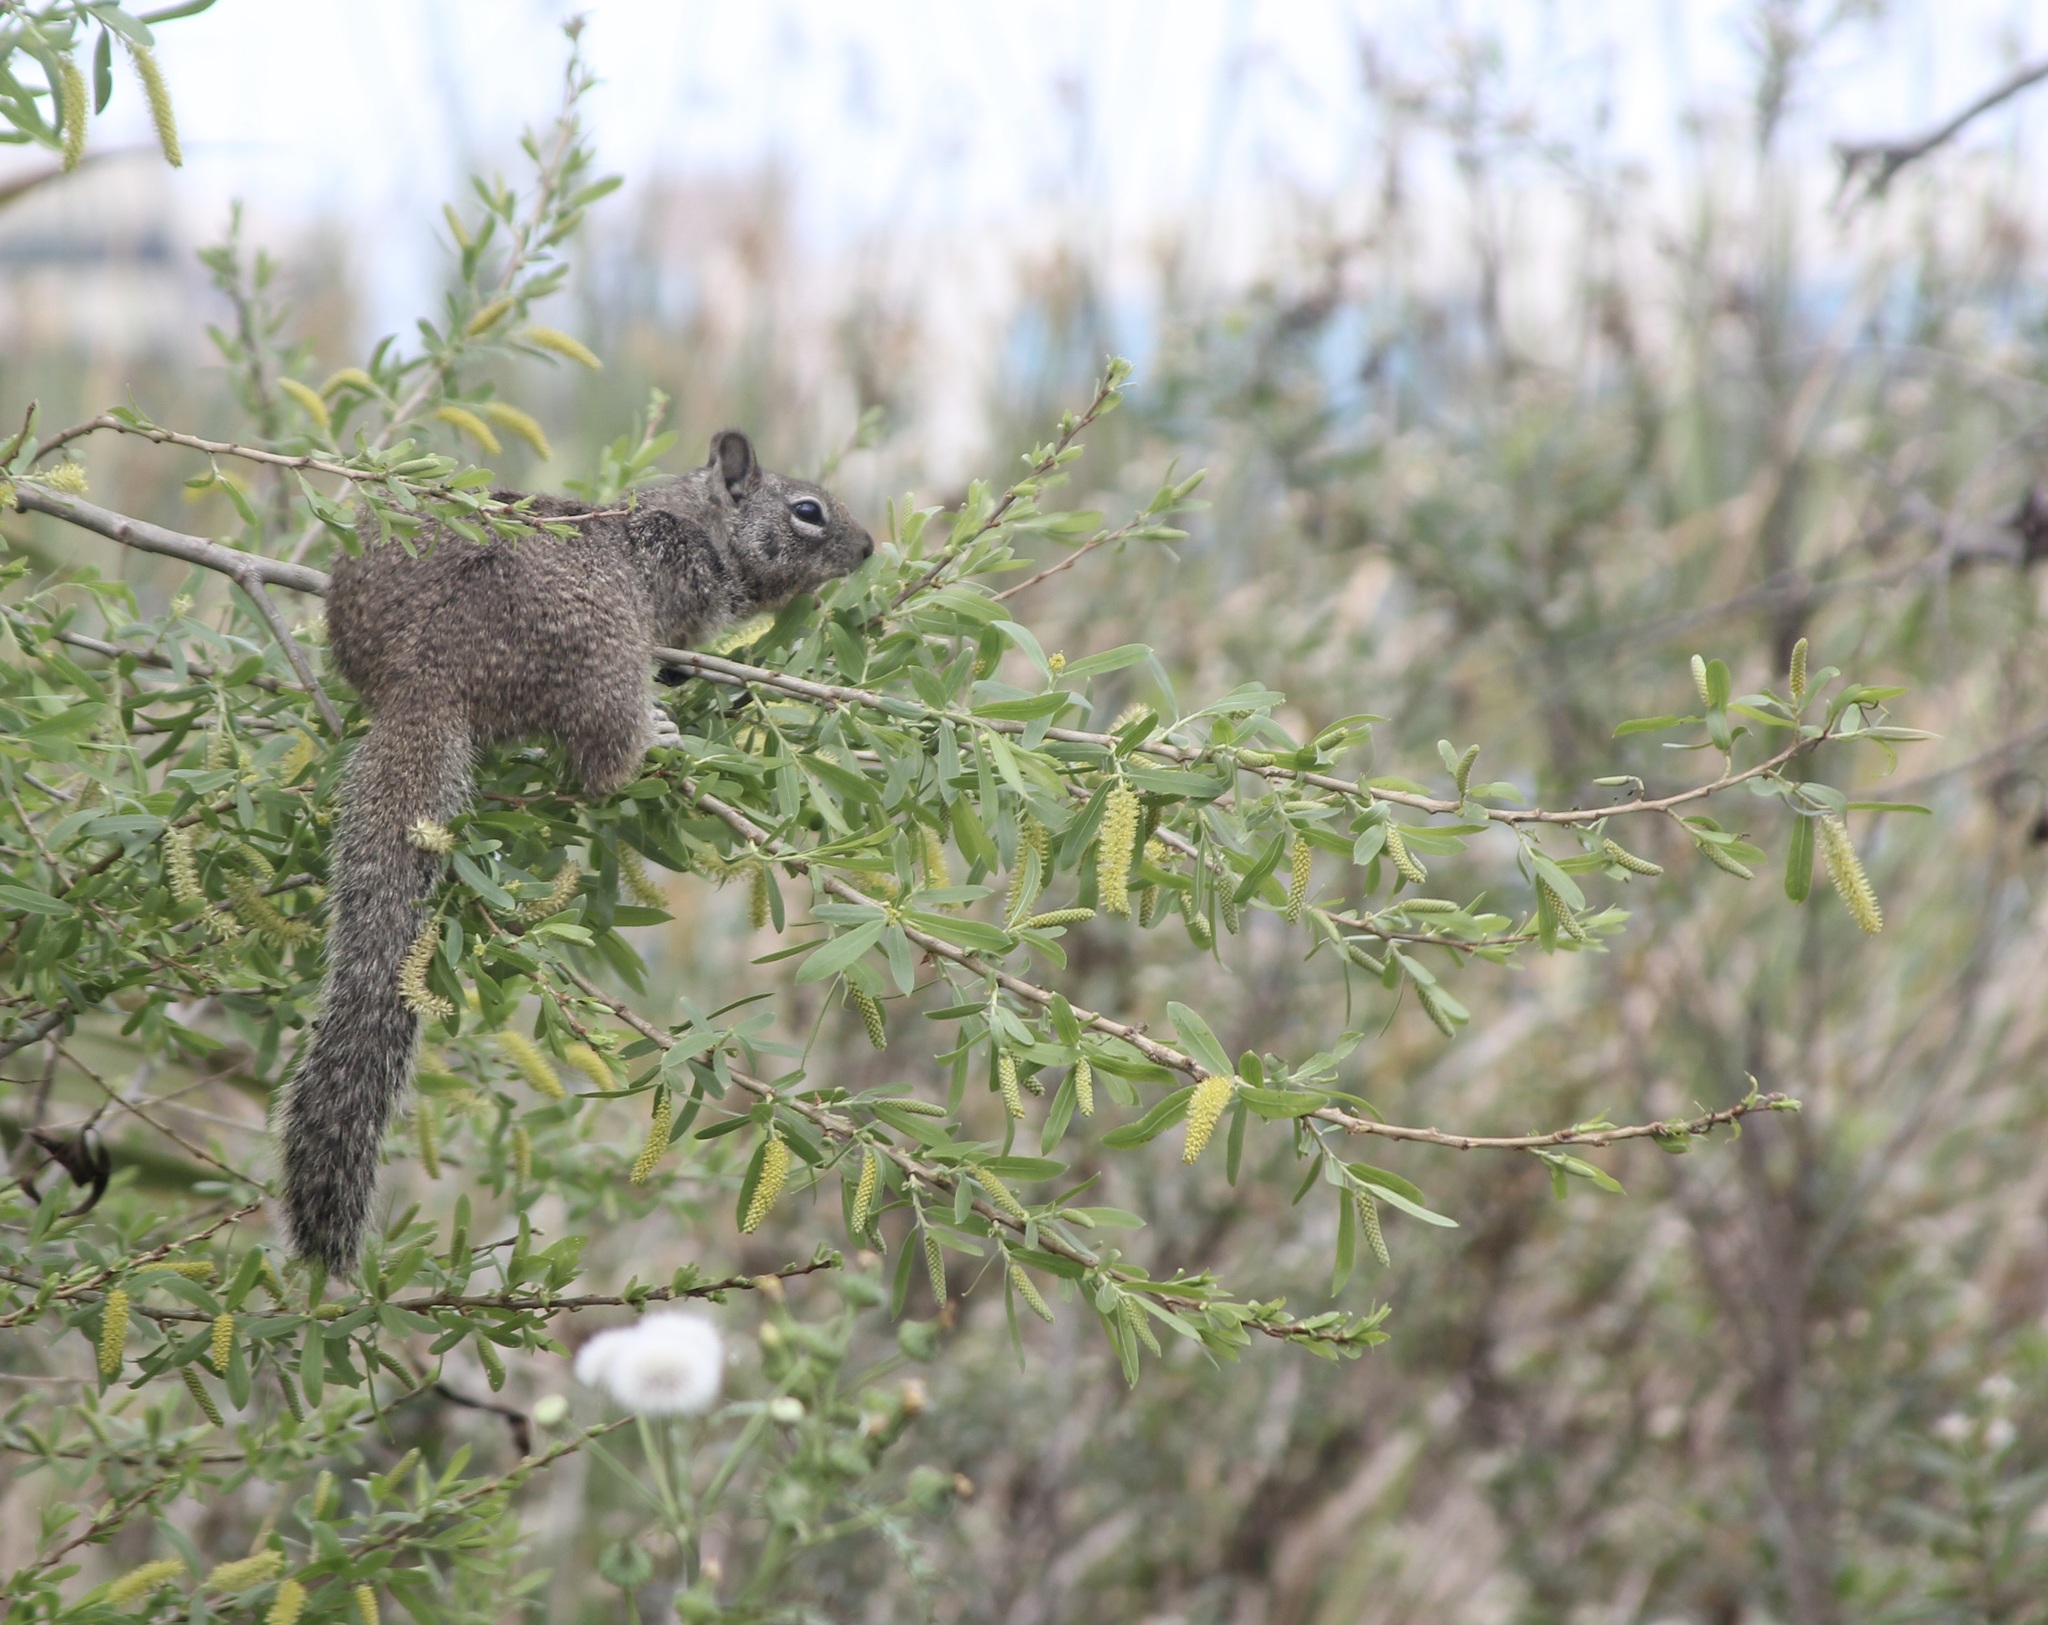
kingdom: Animalia
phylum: Chordata
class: Mammalia
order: Rodentia
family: Sciuridae
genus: Otospermophilus
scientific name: Otospermophilus beecheyi
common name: California ground squirrel
